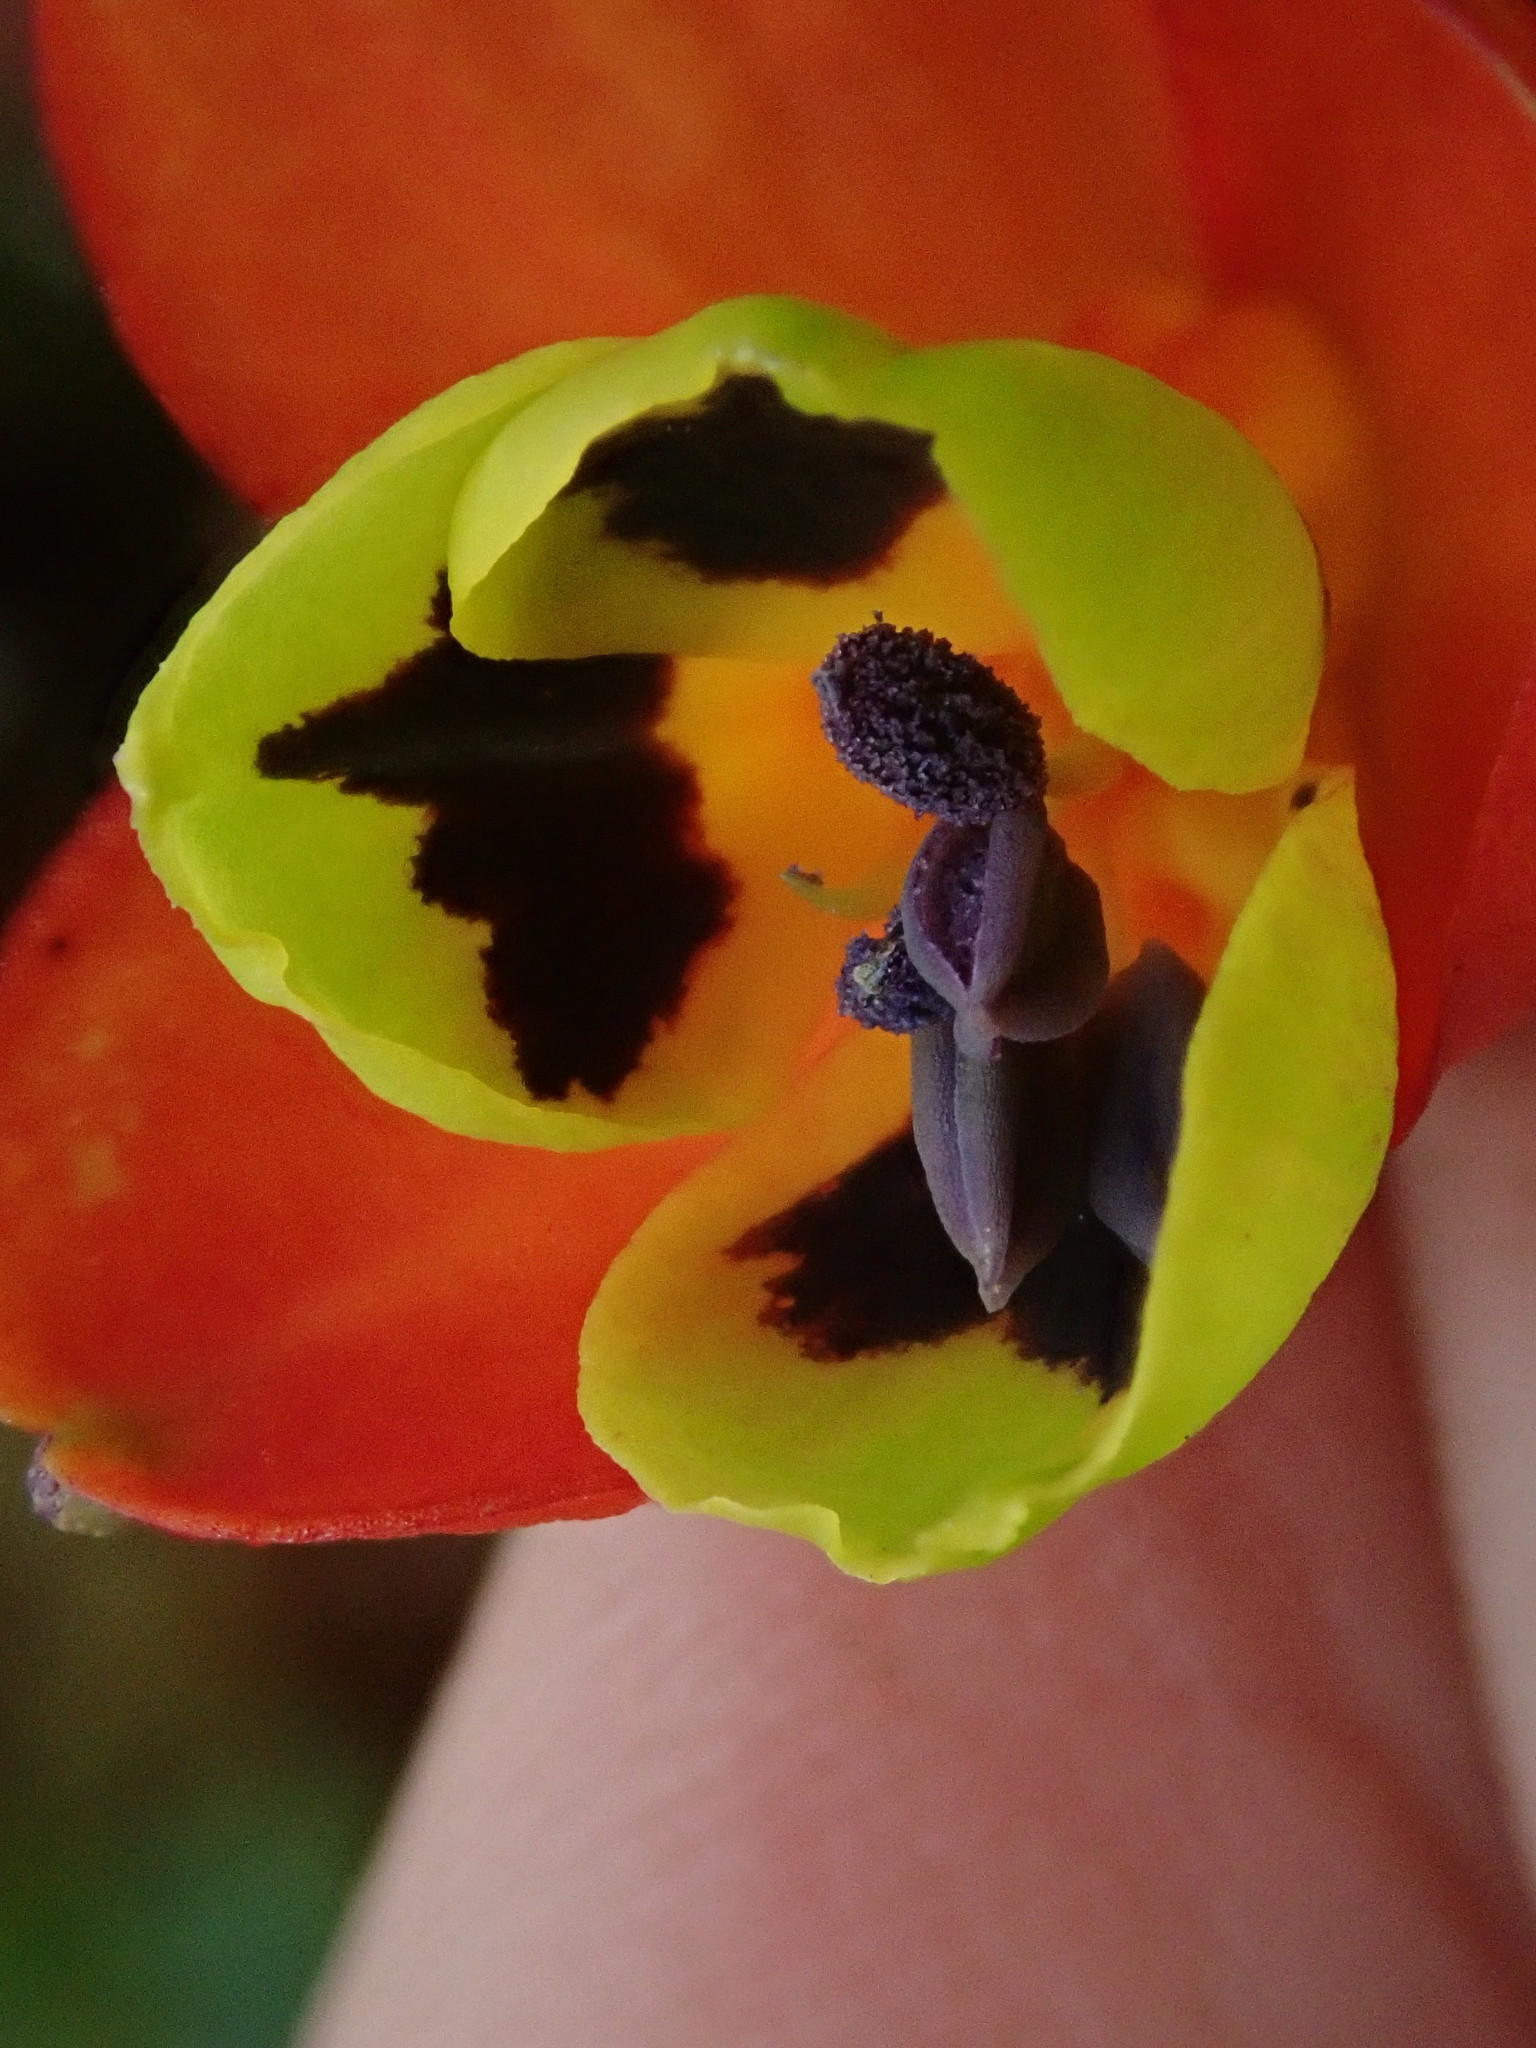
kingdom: Plantae
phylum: Tracheophyta
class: Liliopsida
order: Liliales
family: Alstroemeriaceae
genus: Bomarea
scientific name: Bomarea
